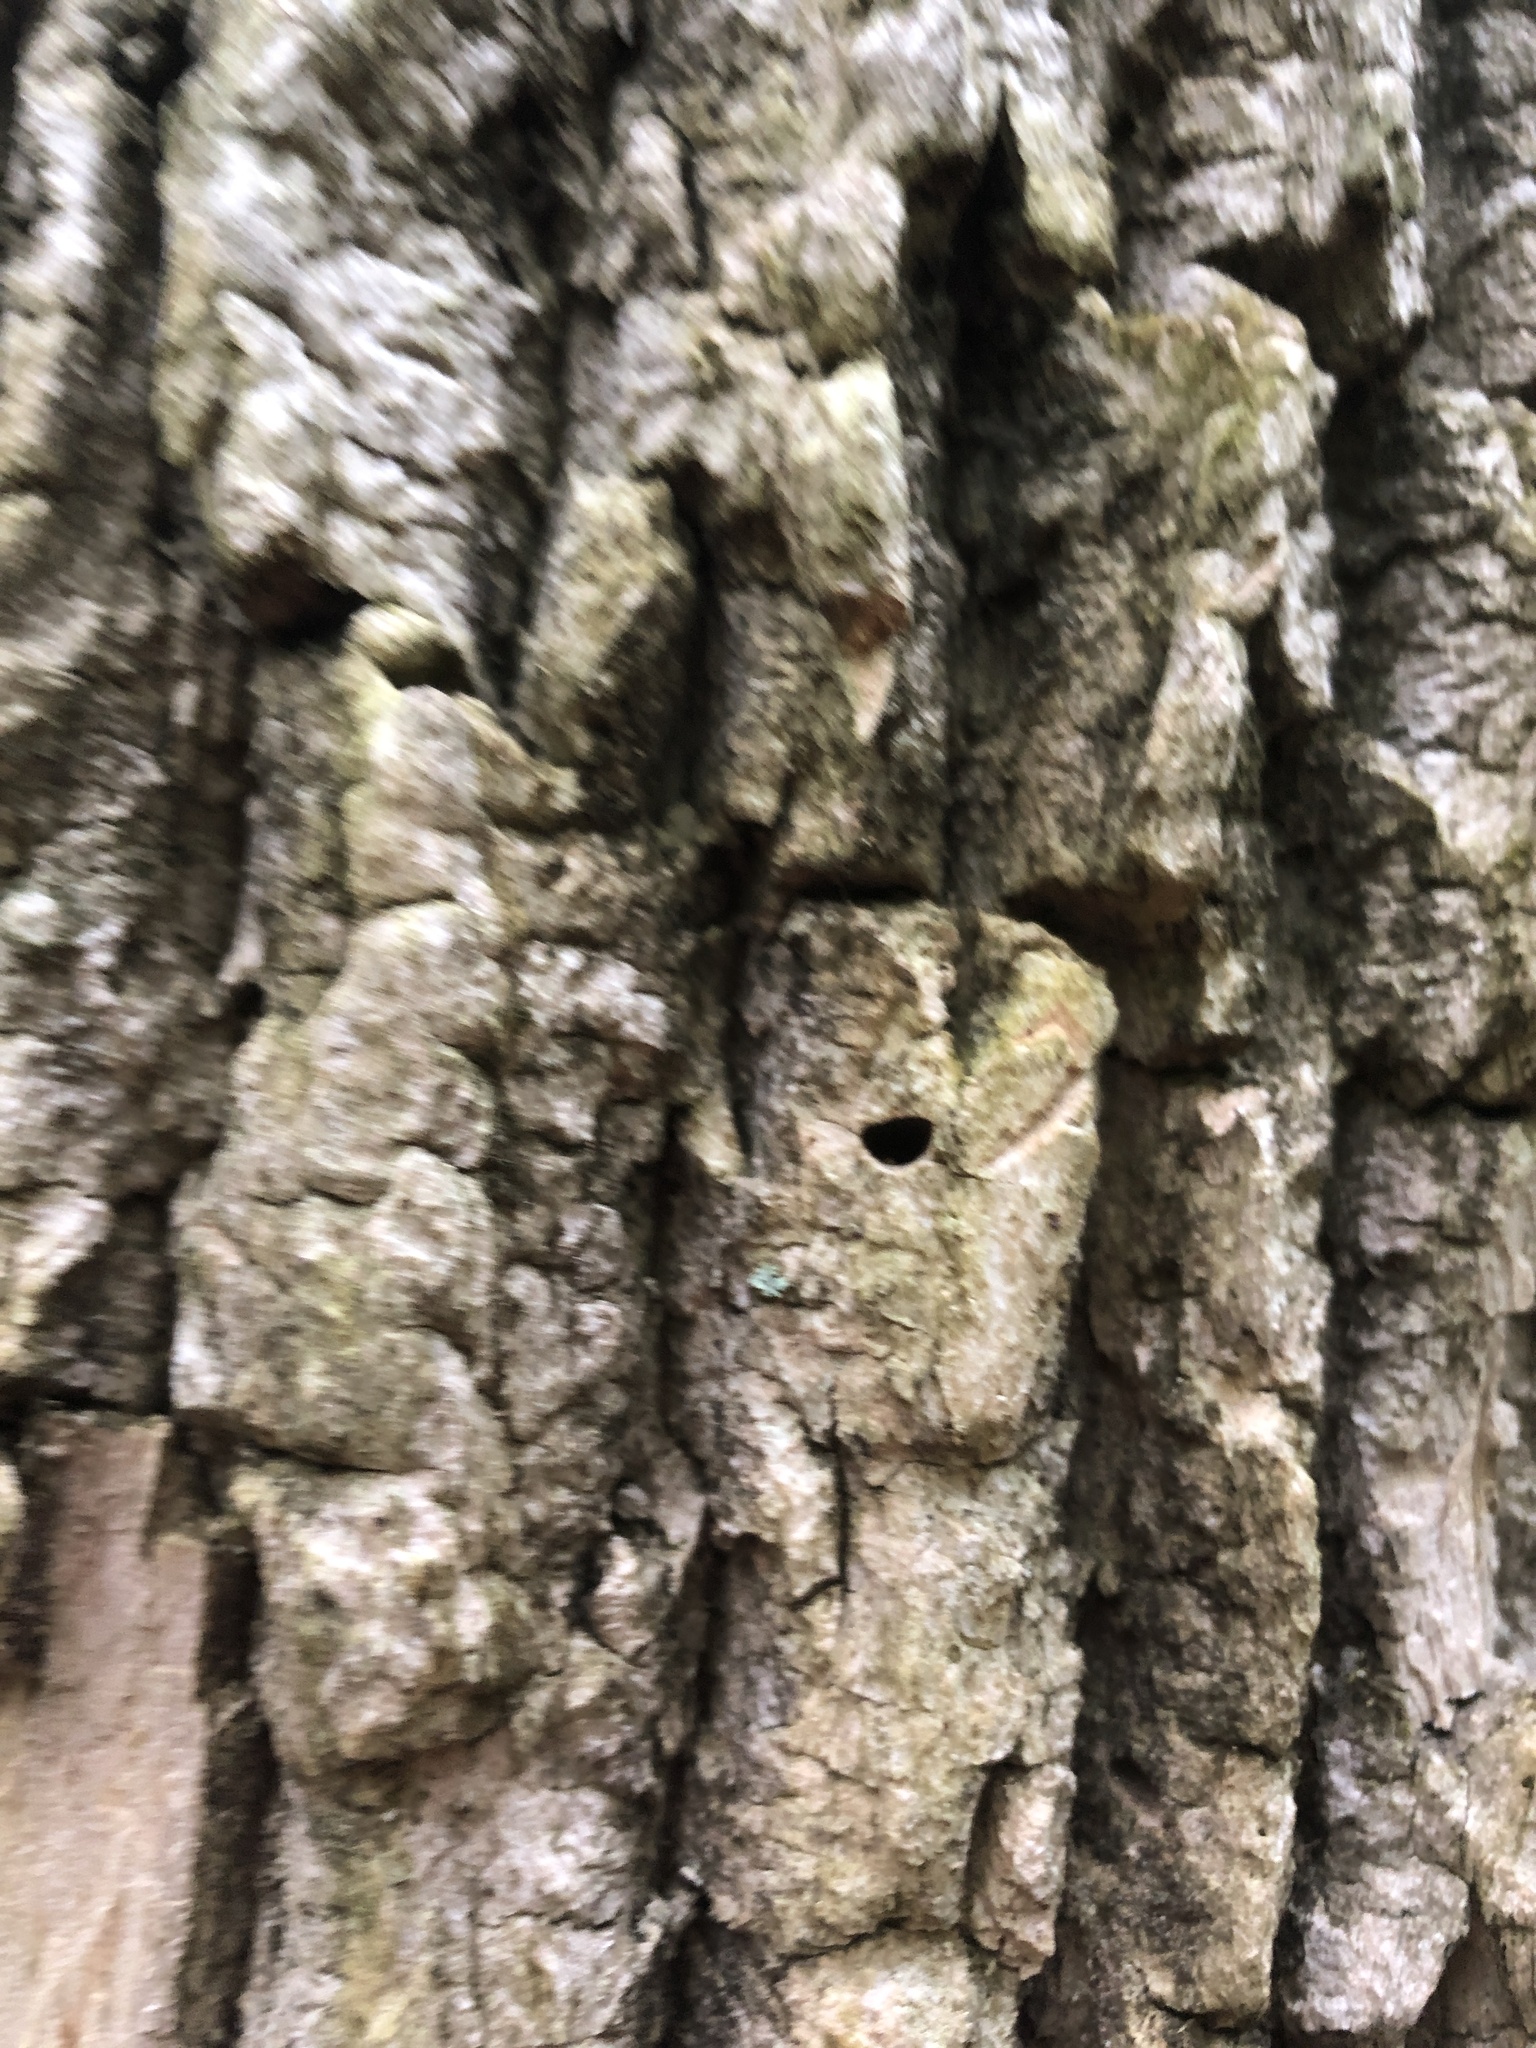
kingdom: Animalia
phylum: Arthropoda
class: Insecta
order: Coleoptera
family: Buprestidae
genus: Agrilus
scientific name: Agrilus planipennis
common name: Emerald ash borer
